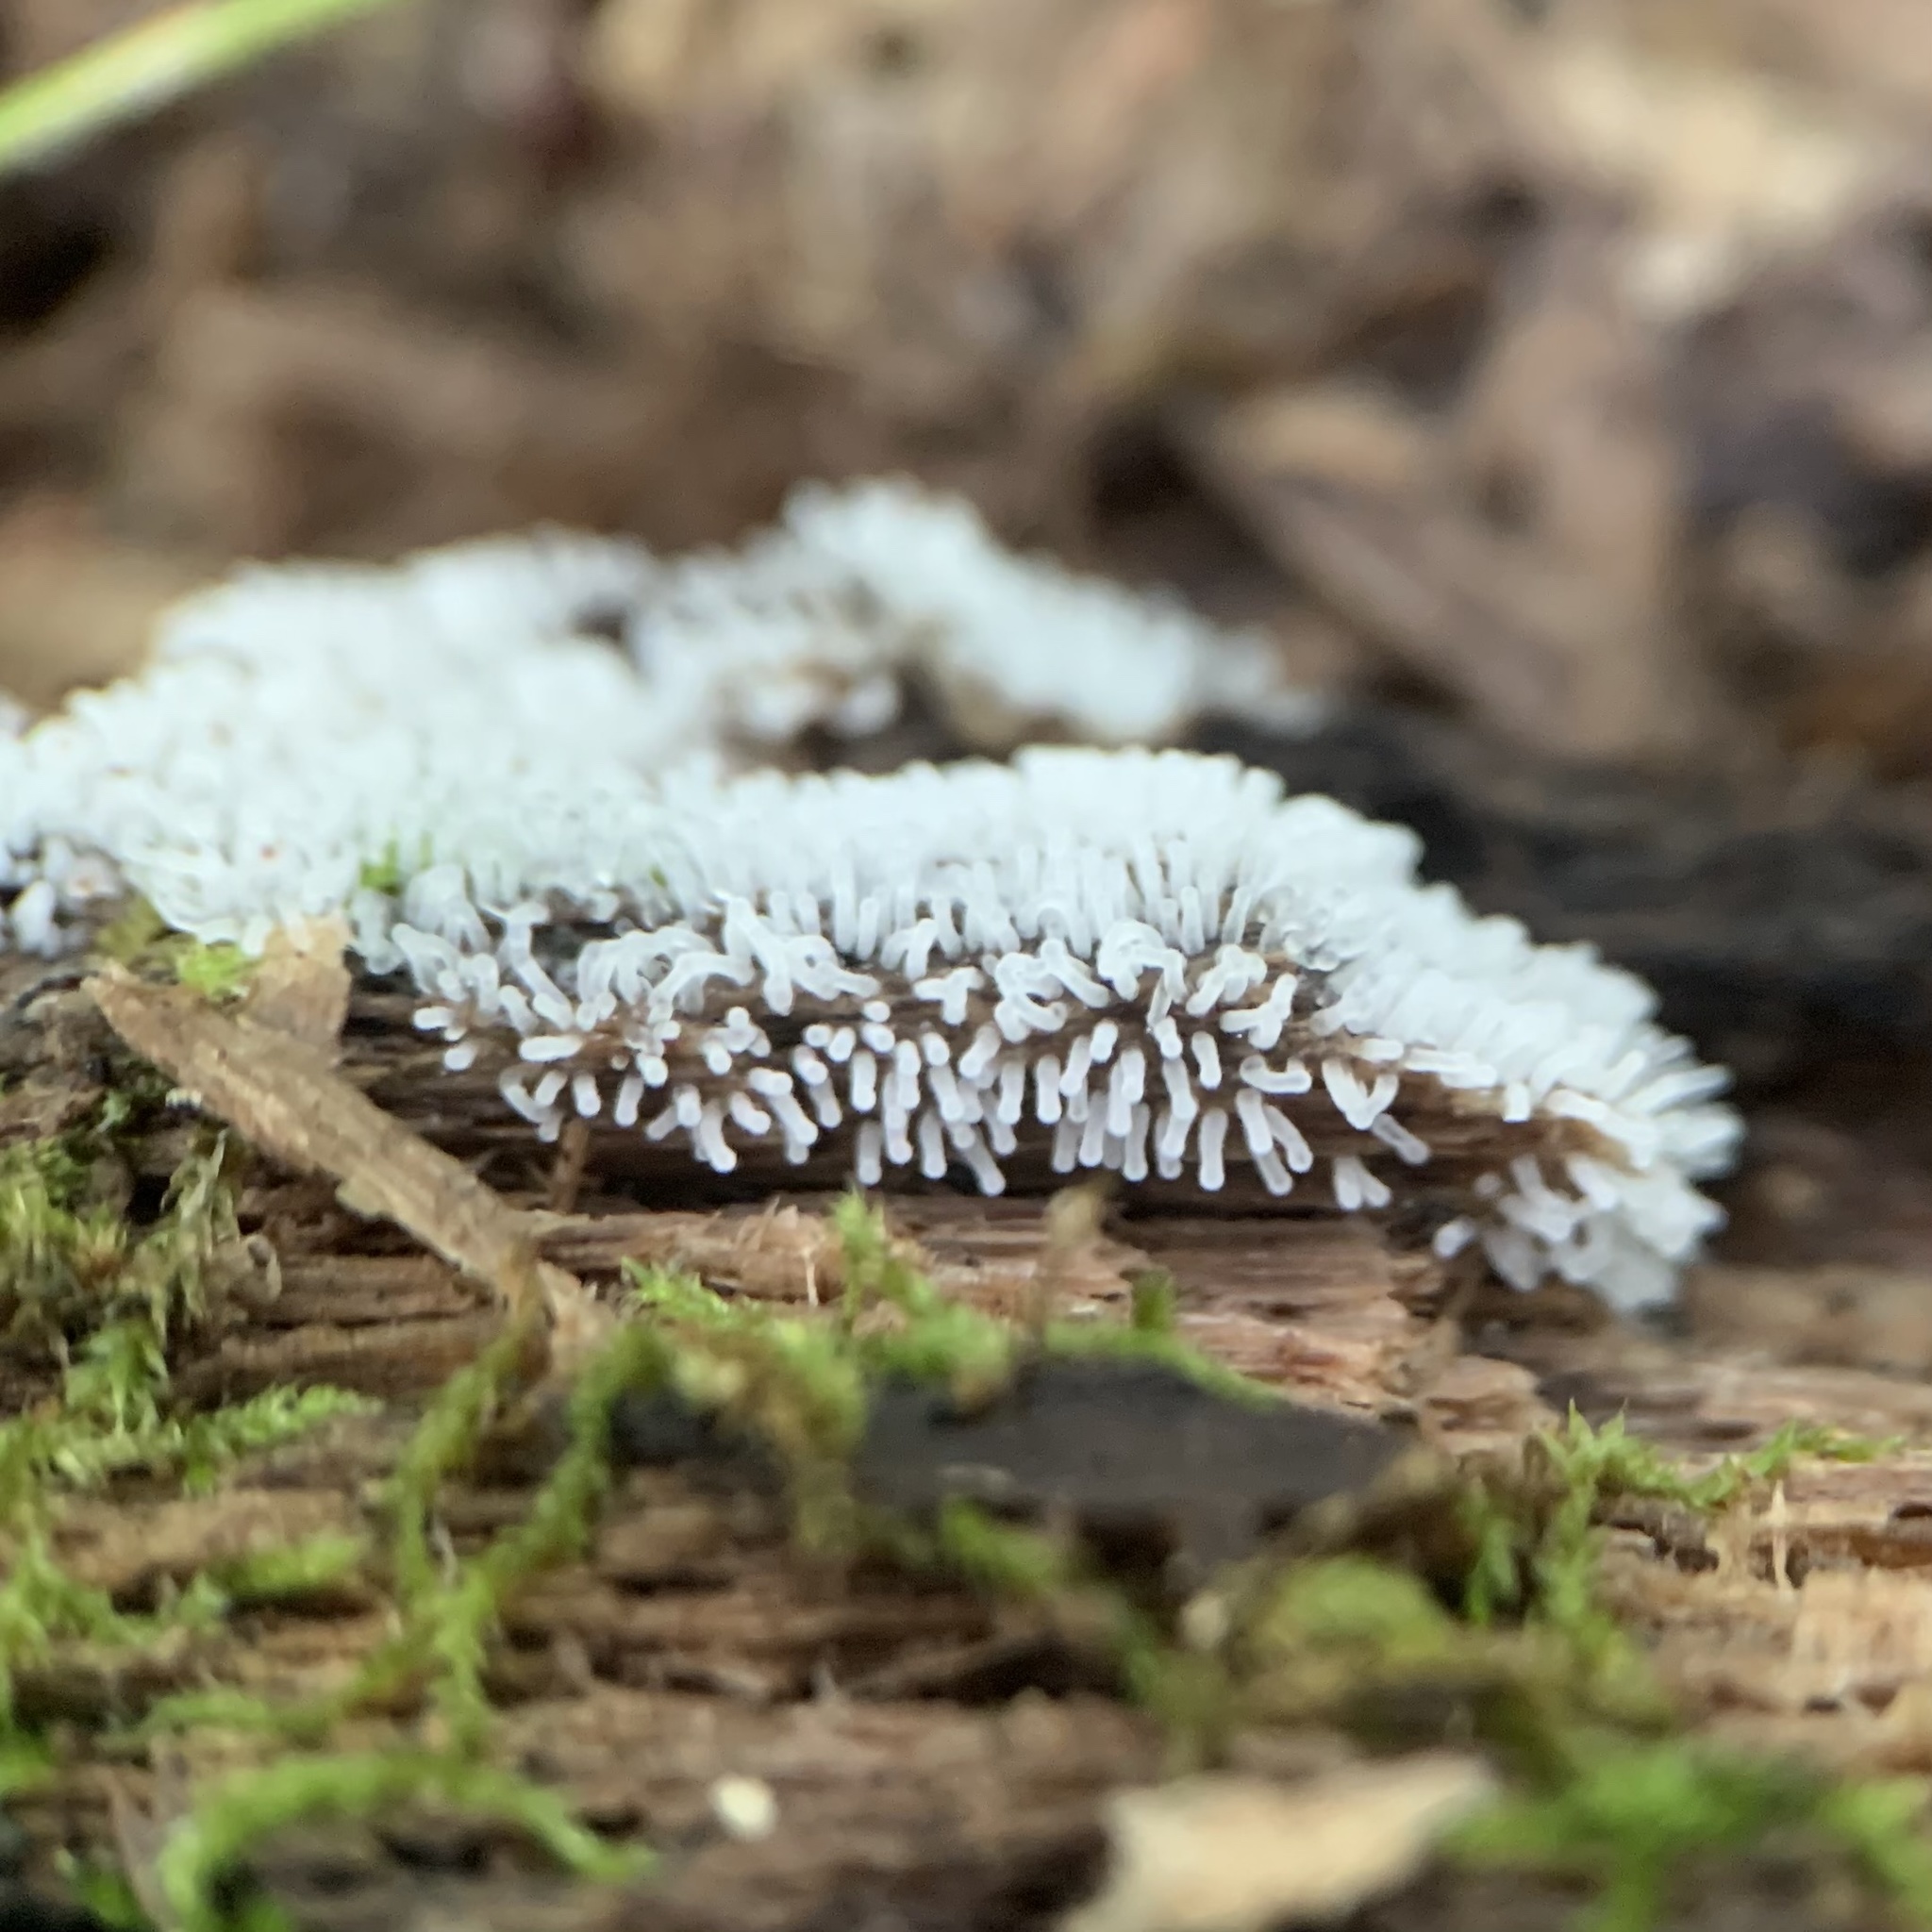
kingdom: Protozoa
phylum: Mycetozoa
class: Protosteliomycetes
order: Ceratiomyxales
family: Ceratiomyxaceae
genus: Ceratiomyxa
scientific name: Ceratiomyxa fruticulosa
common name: Honeycomb coral slime mold
